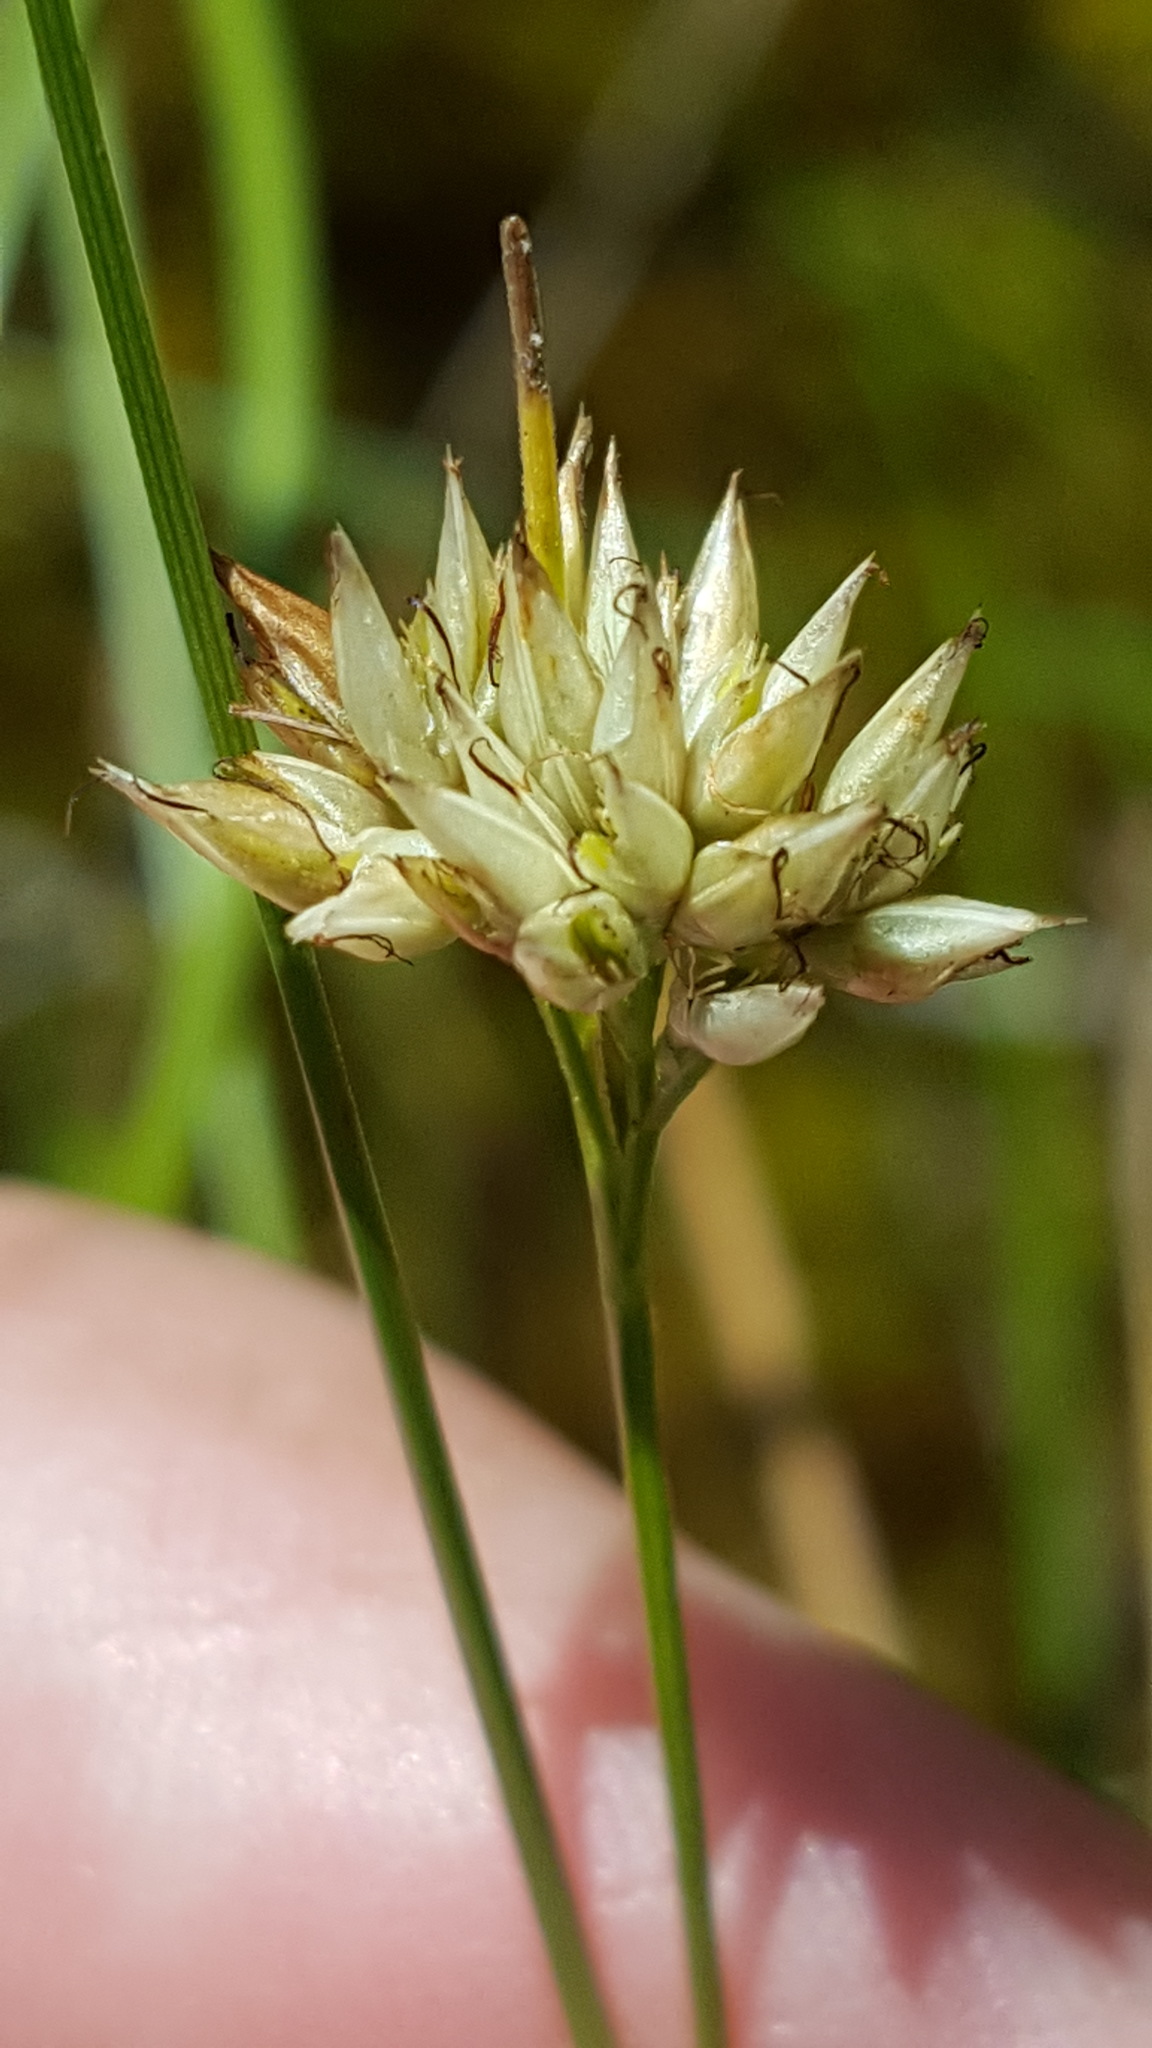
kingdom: Plantae
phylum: Tracheophyta
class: Liliopsida
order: Poales
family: Cyperaceae
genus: Rhynchospora
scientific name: Rhynchospora alba
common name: White beak-sedge
